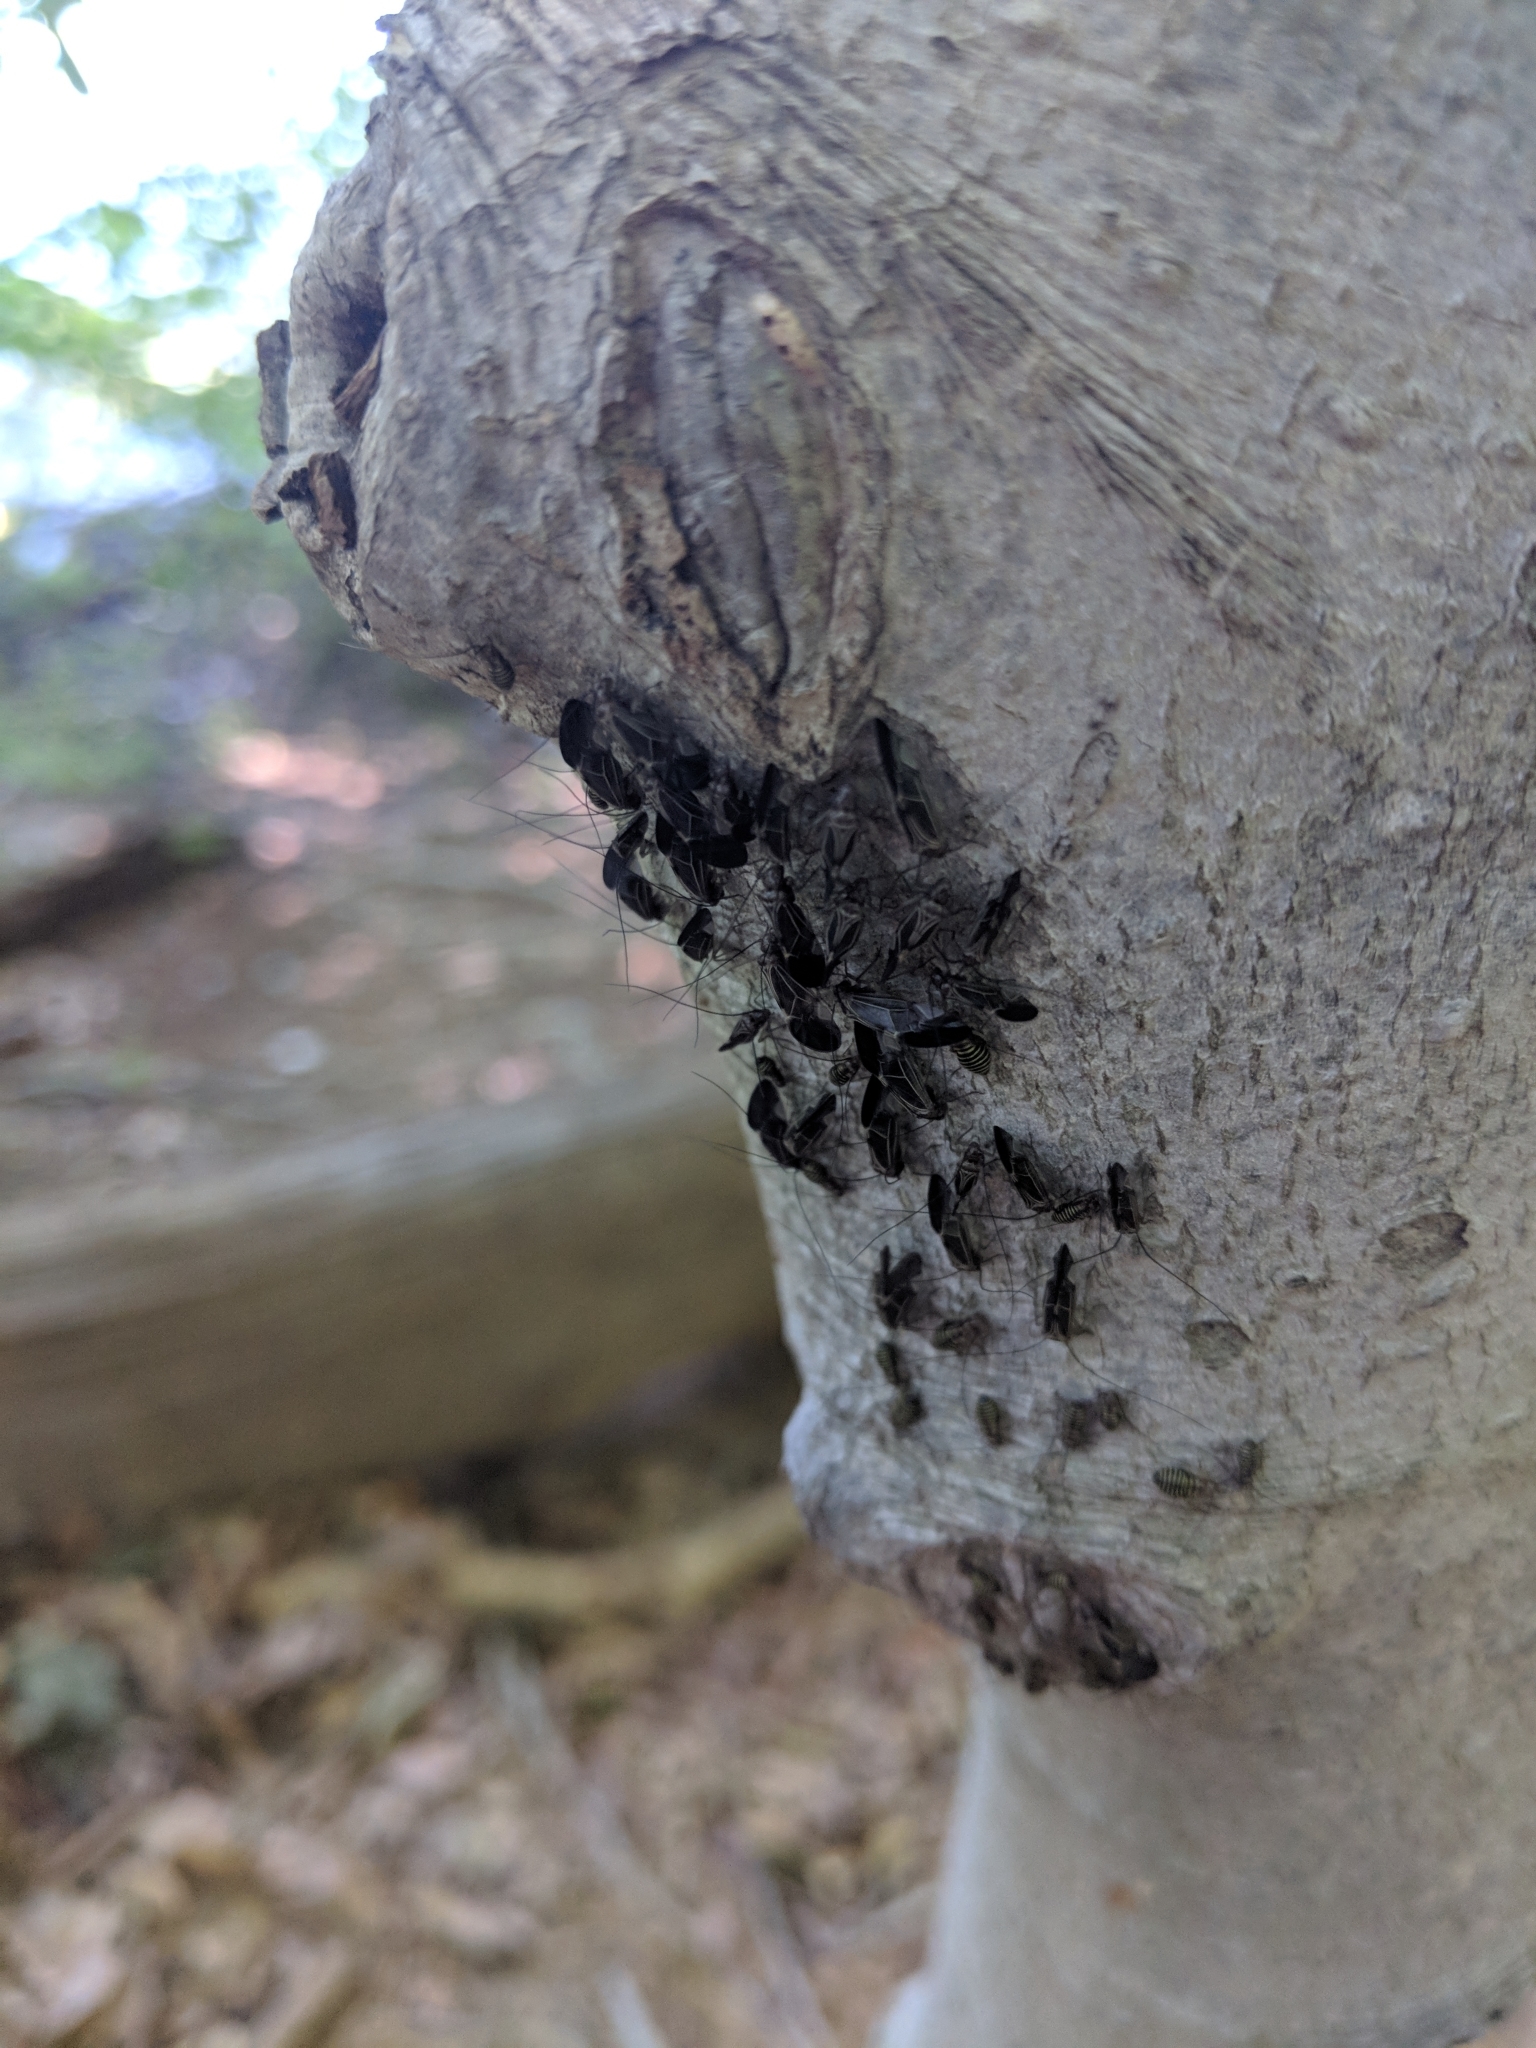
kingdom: Animalia
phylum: Arthropoda
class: Insecta
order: Psocodea
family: Psocidae
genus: Cerastipsocus
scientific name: Cerastipsocus venosus
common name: Tree cattle
